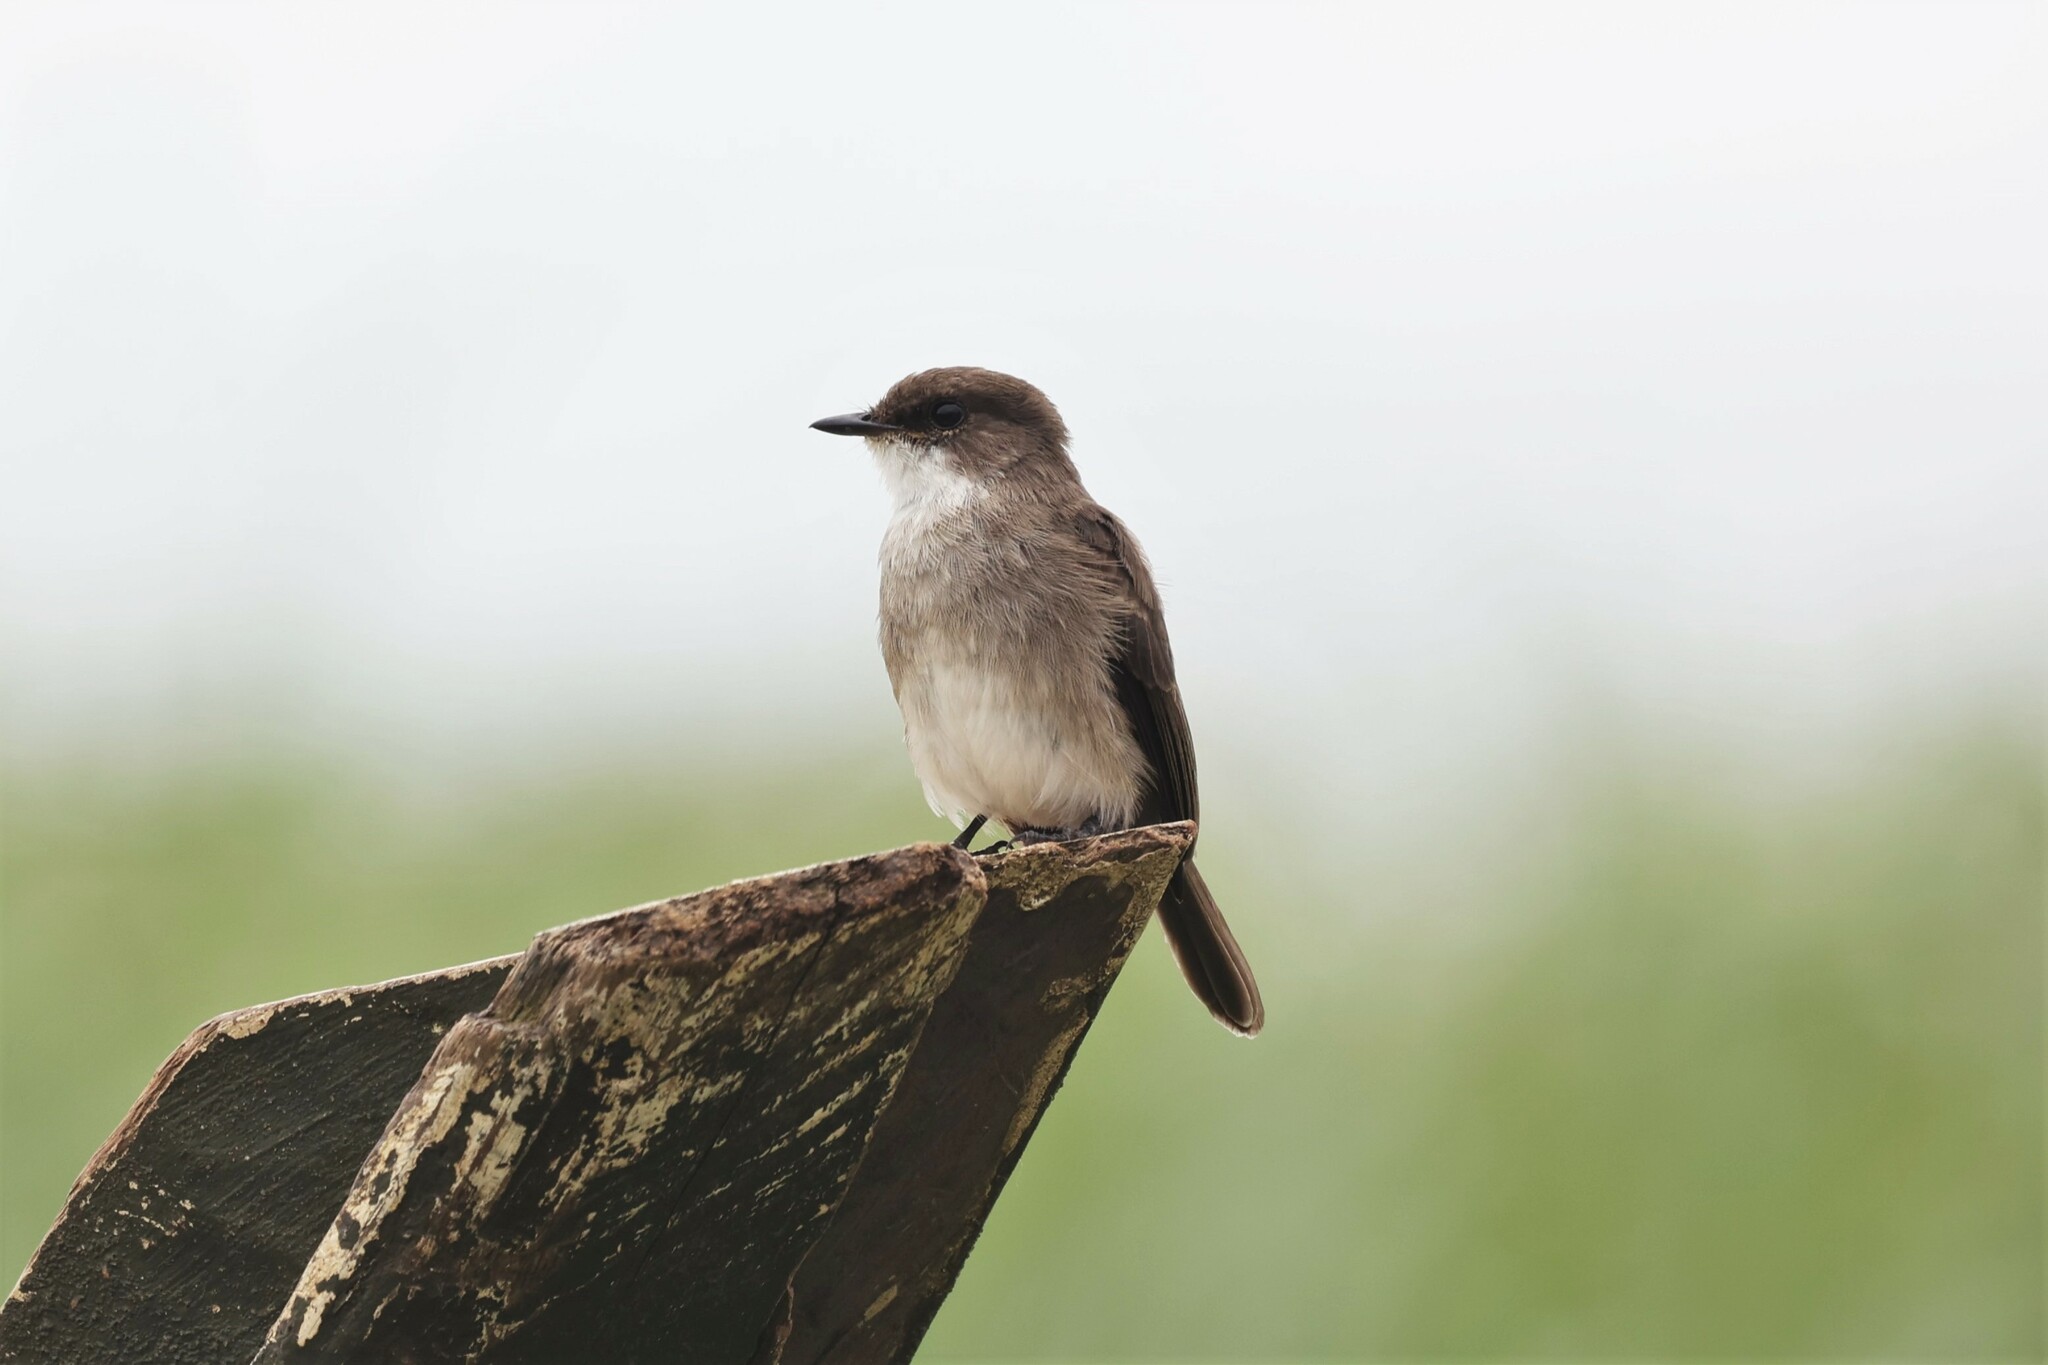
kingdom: Animalia
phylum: Chordata
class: Aves
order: Passeriformes
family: Muscicapidae
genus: Muscicapa
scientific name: Muscicapa aquatica
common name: Swamp flycatcher
